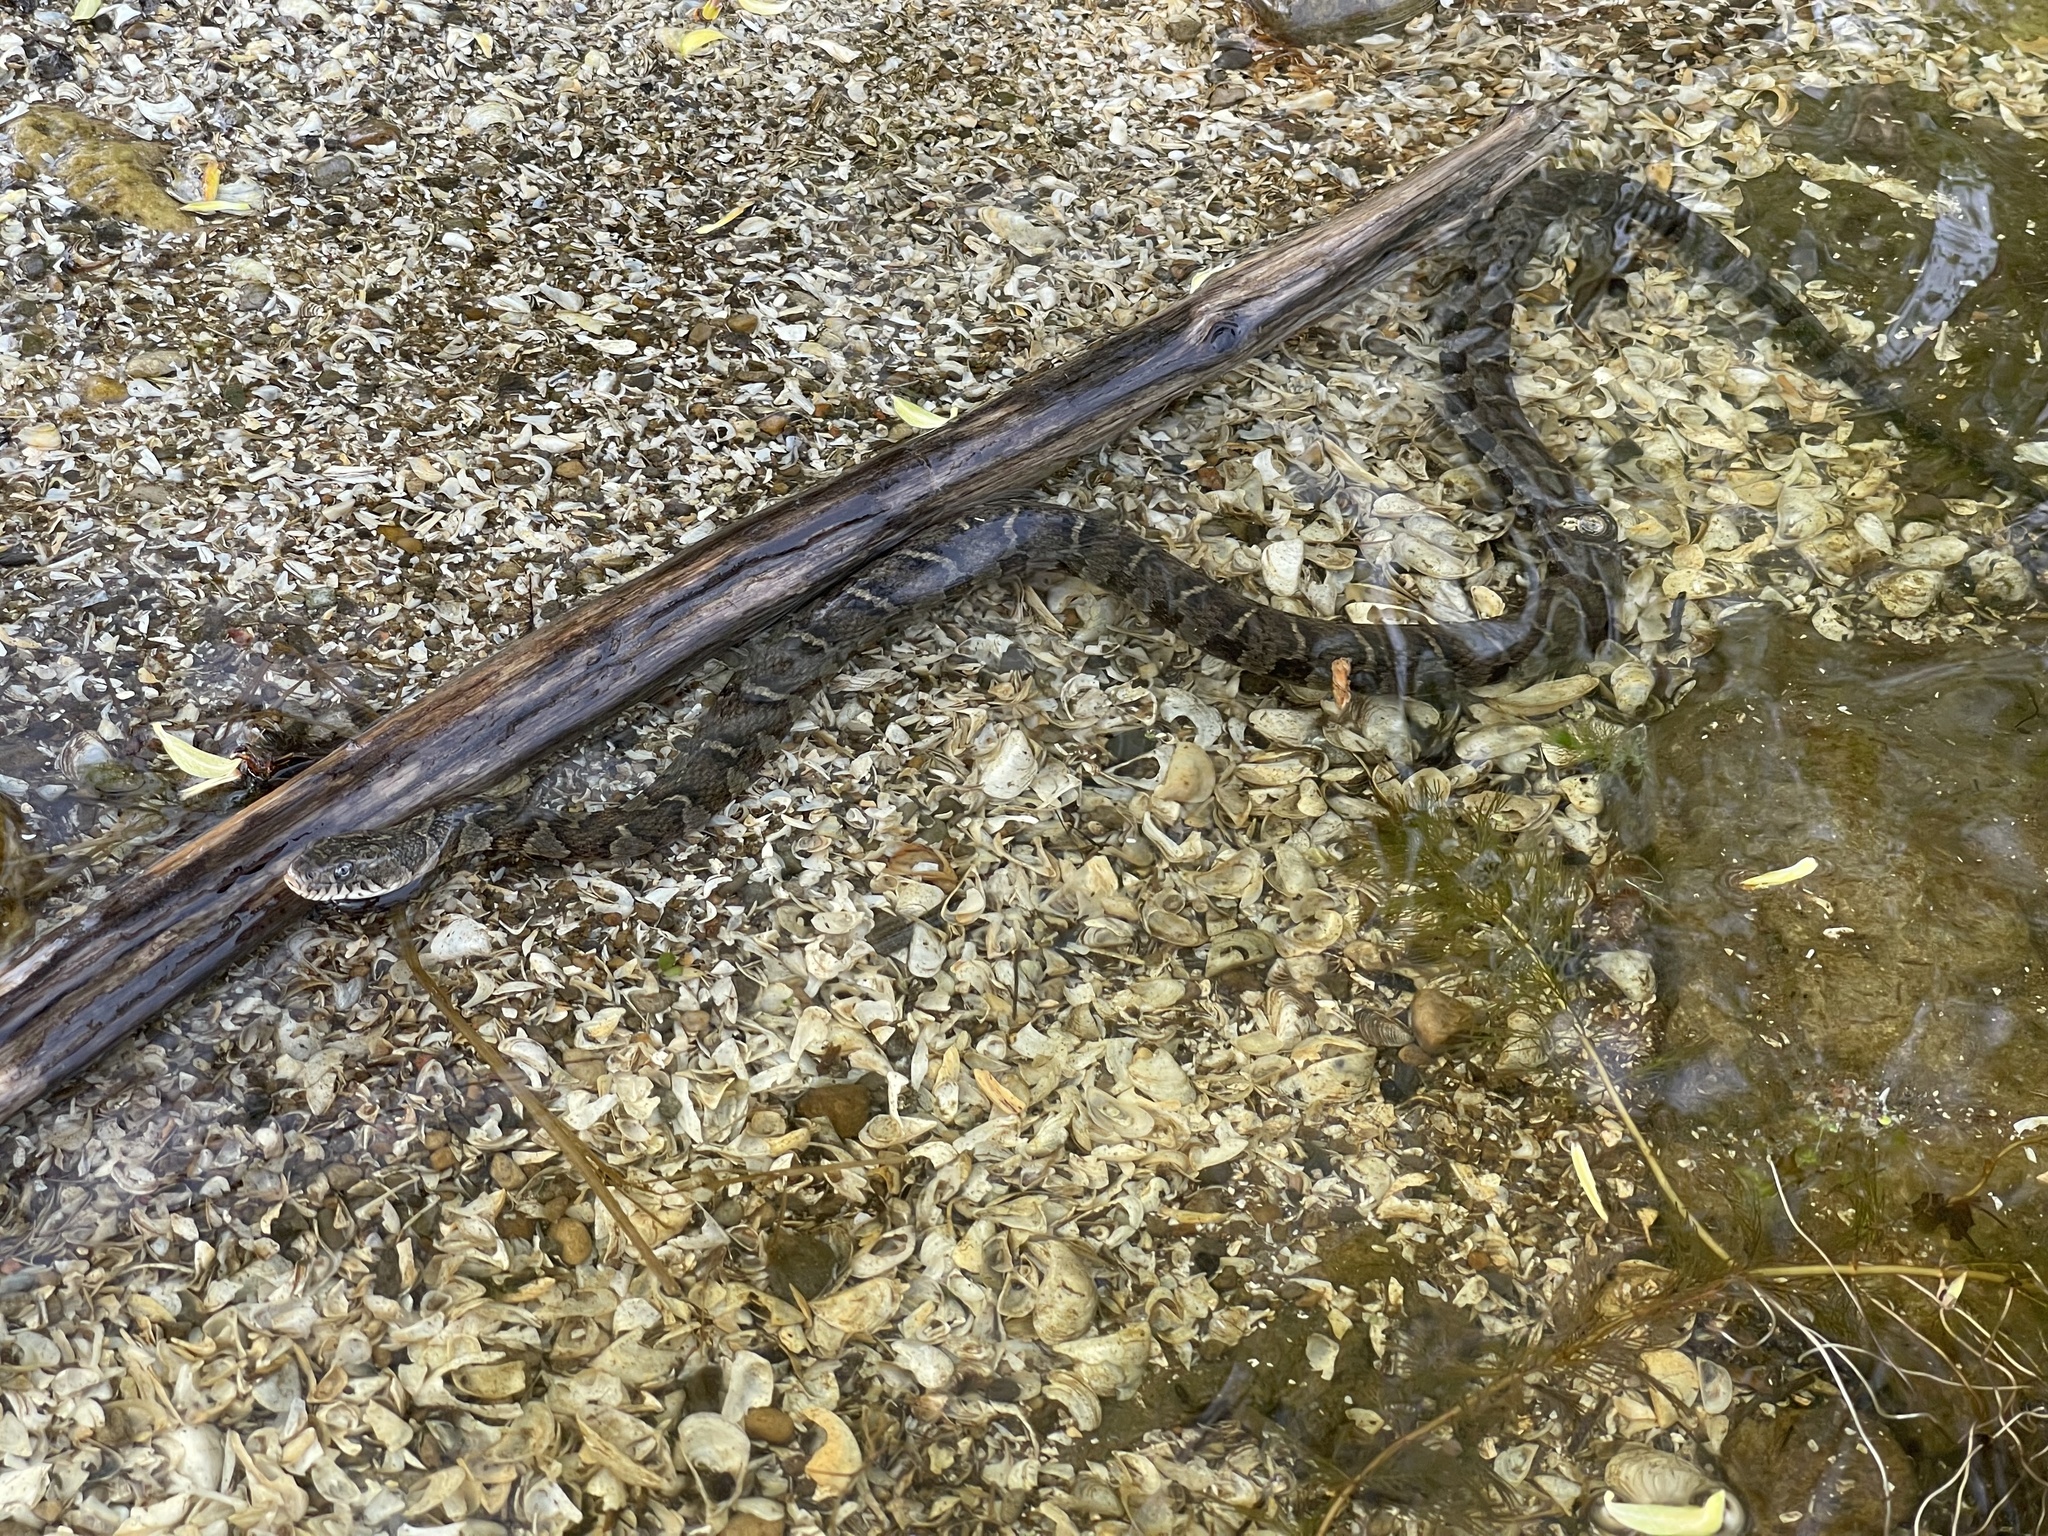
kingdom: Animalia
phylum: Chordata
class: Squamata
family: Colubridae
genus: Nerodia
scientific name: Nerodia sipedon
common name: Northern water snake
